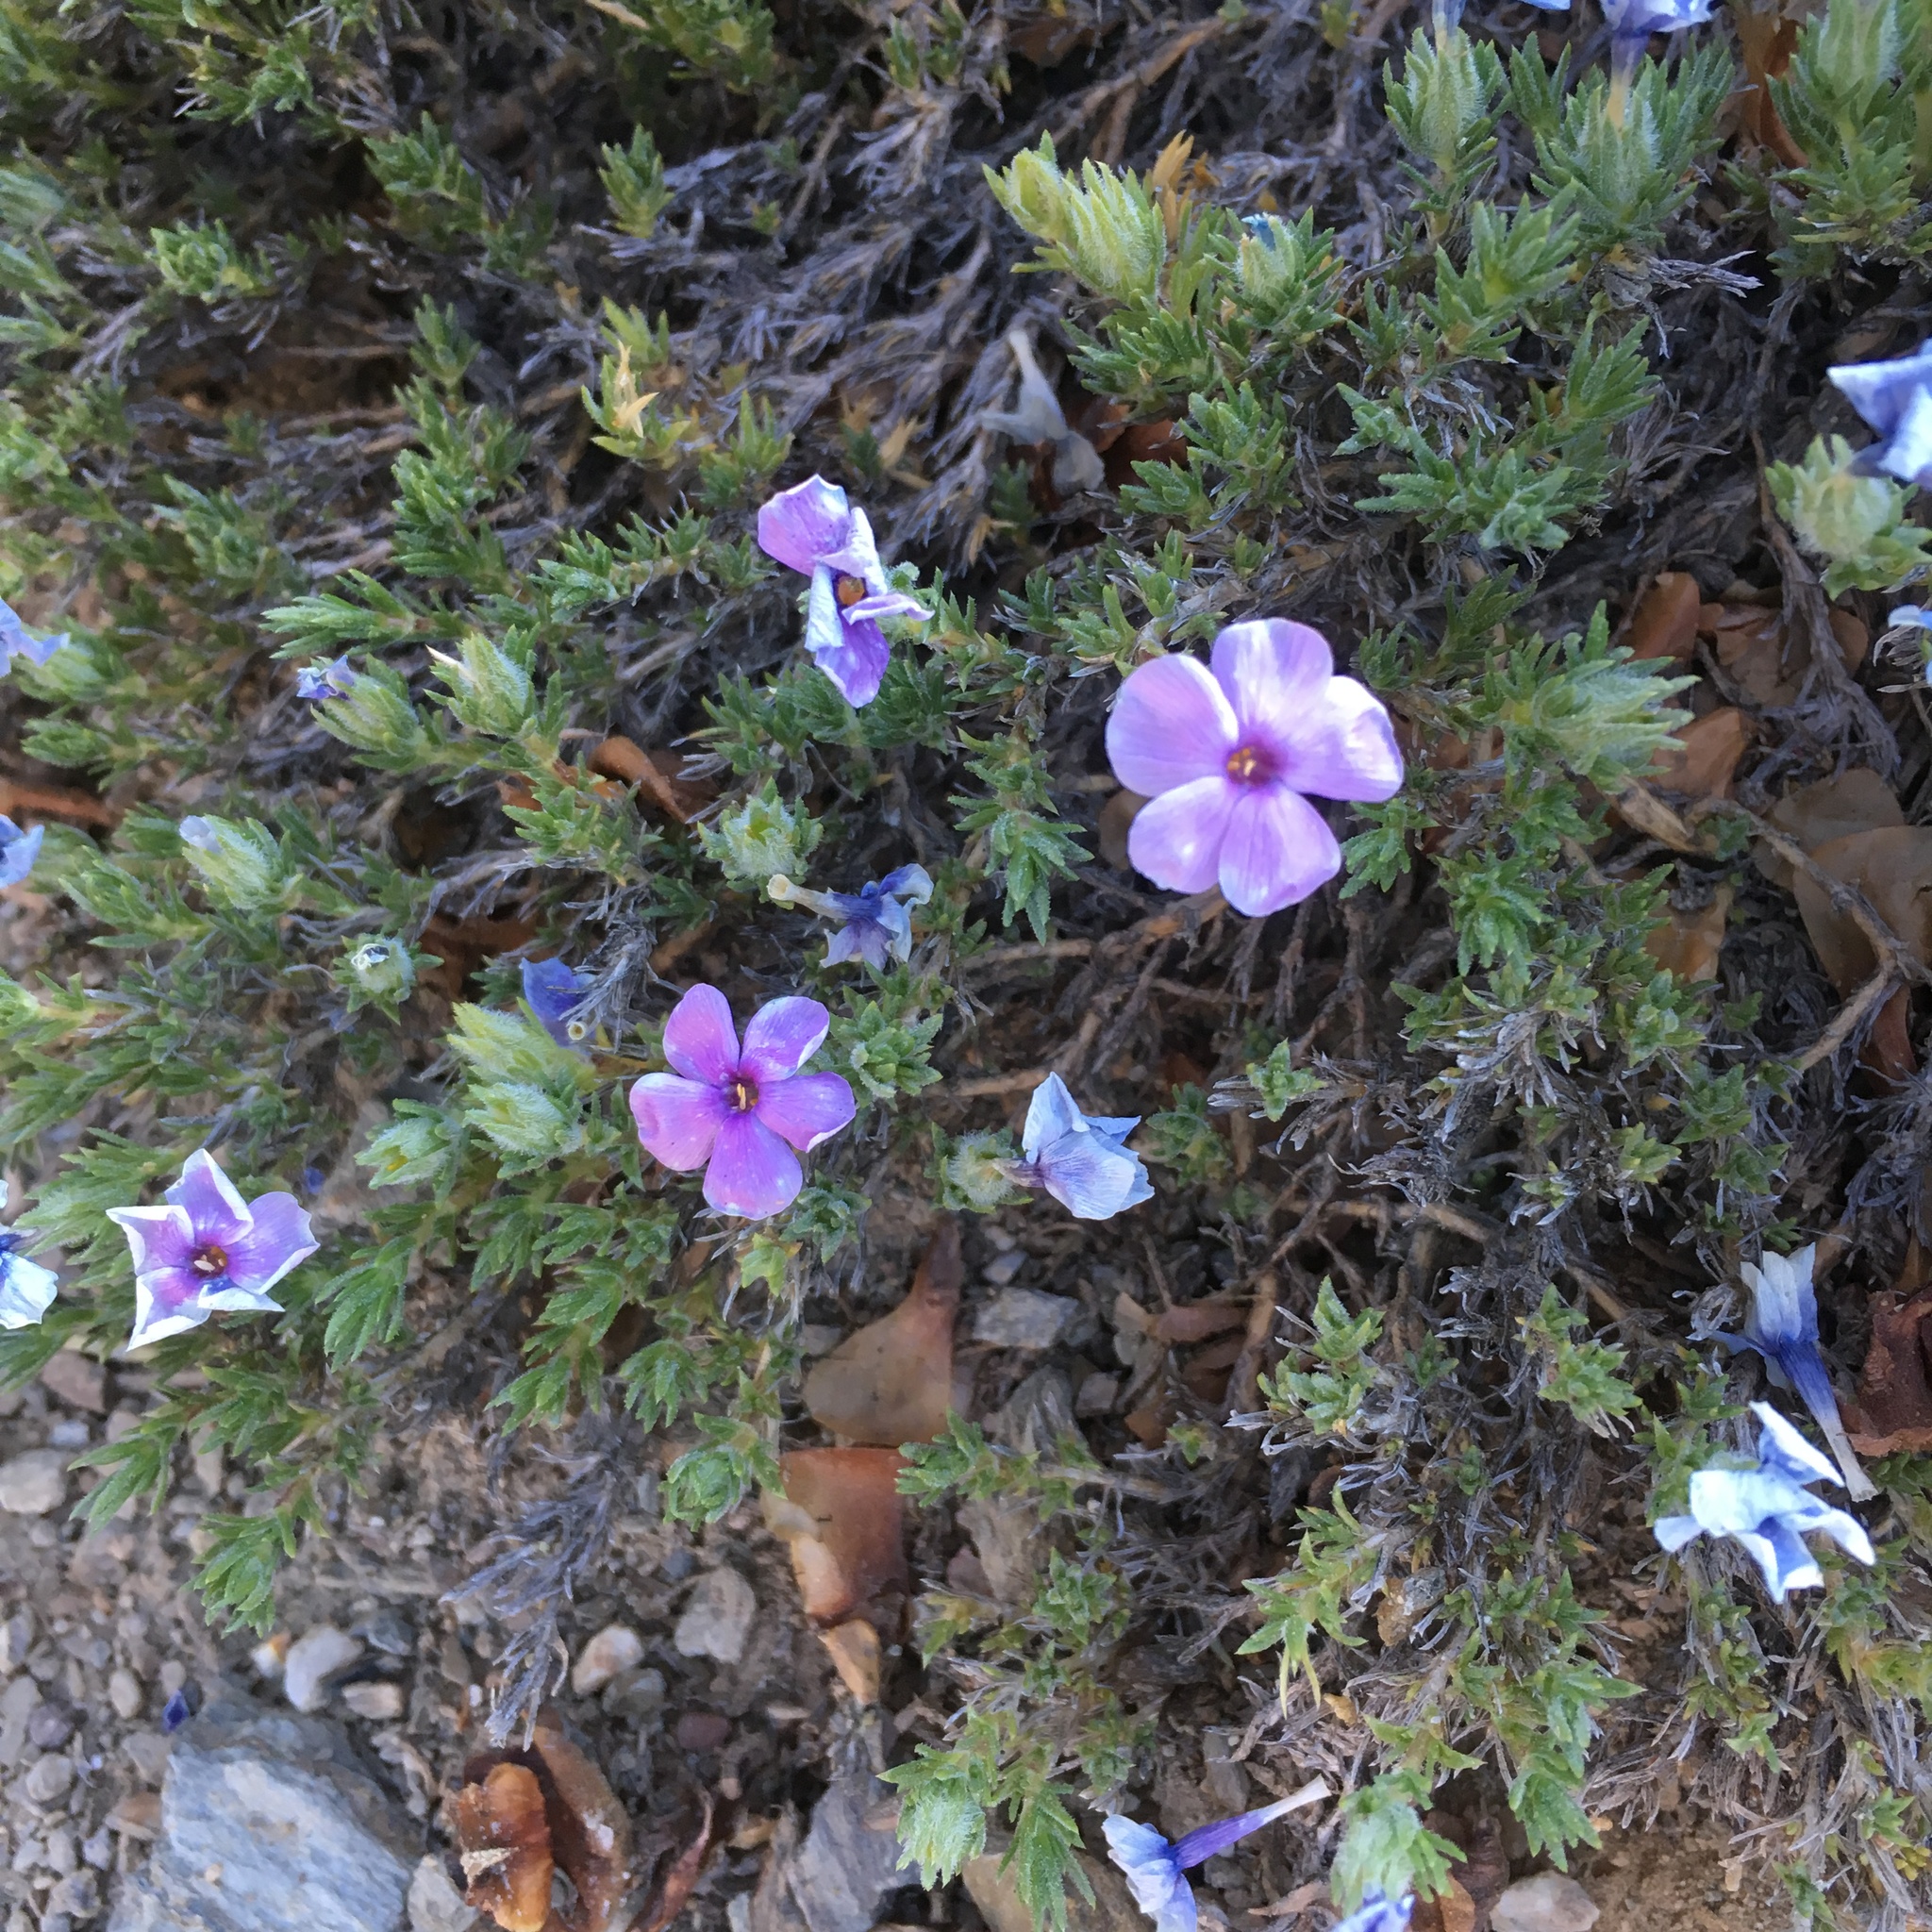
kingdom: Plantae
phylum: Tracheophyta
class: Magnoliopsida
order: Ericales
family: Polemoniaceae
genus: Phlox
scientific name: Phlox diffusa
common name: Mat phlox
